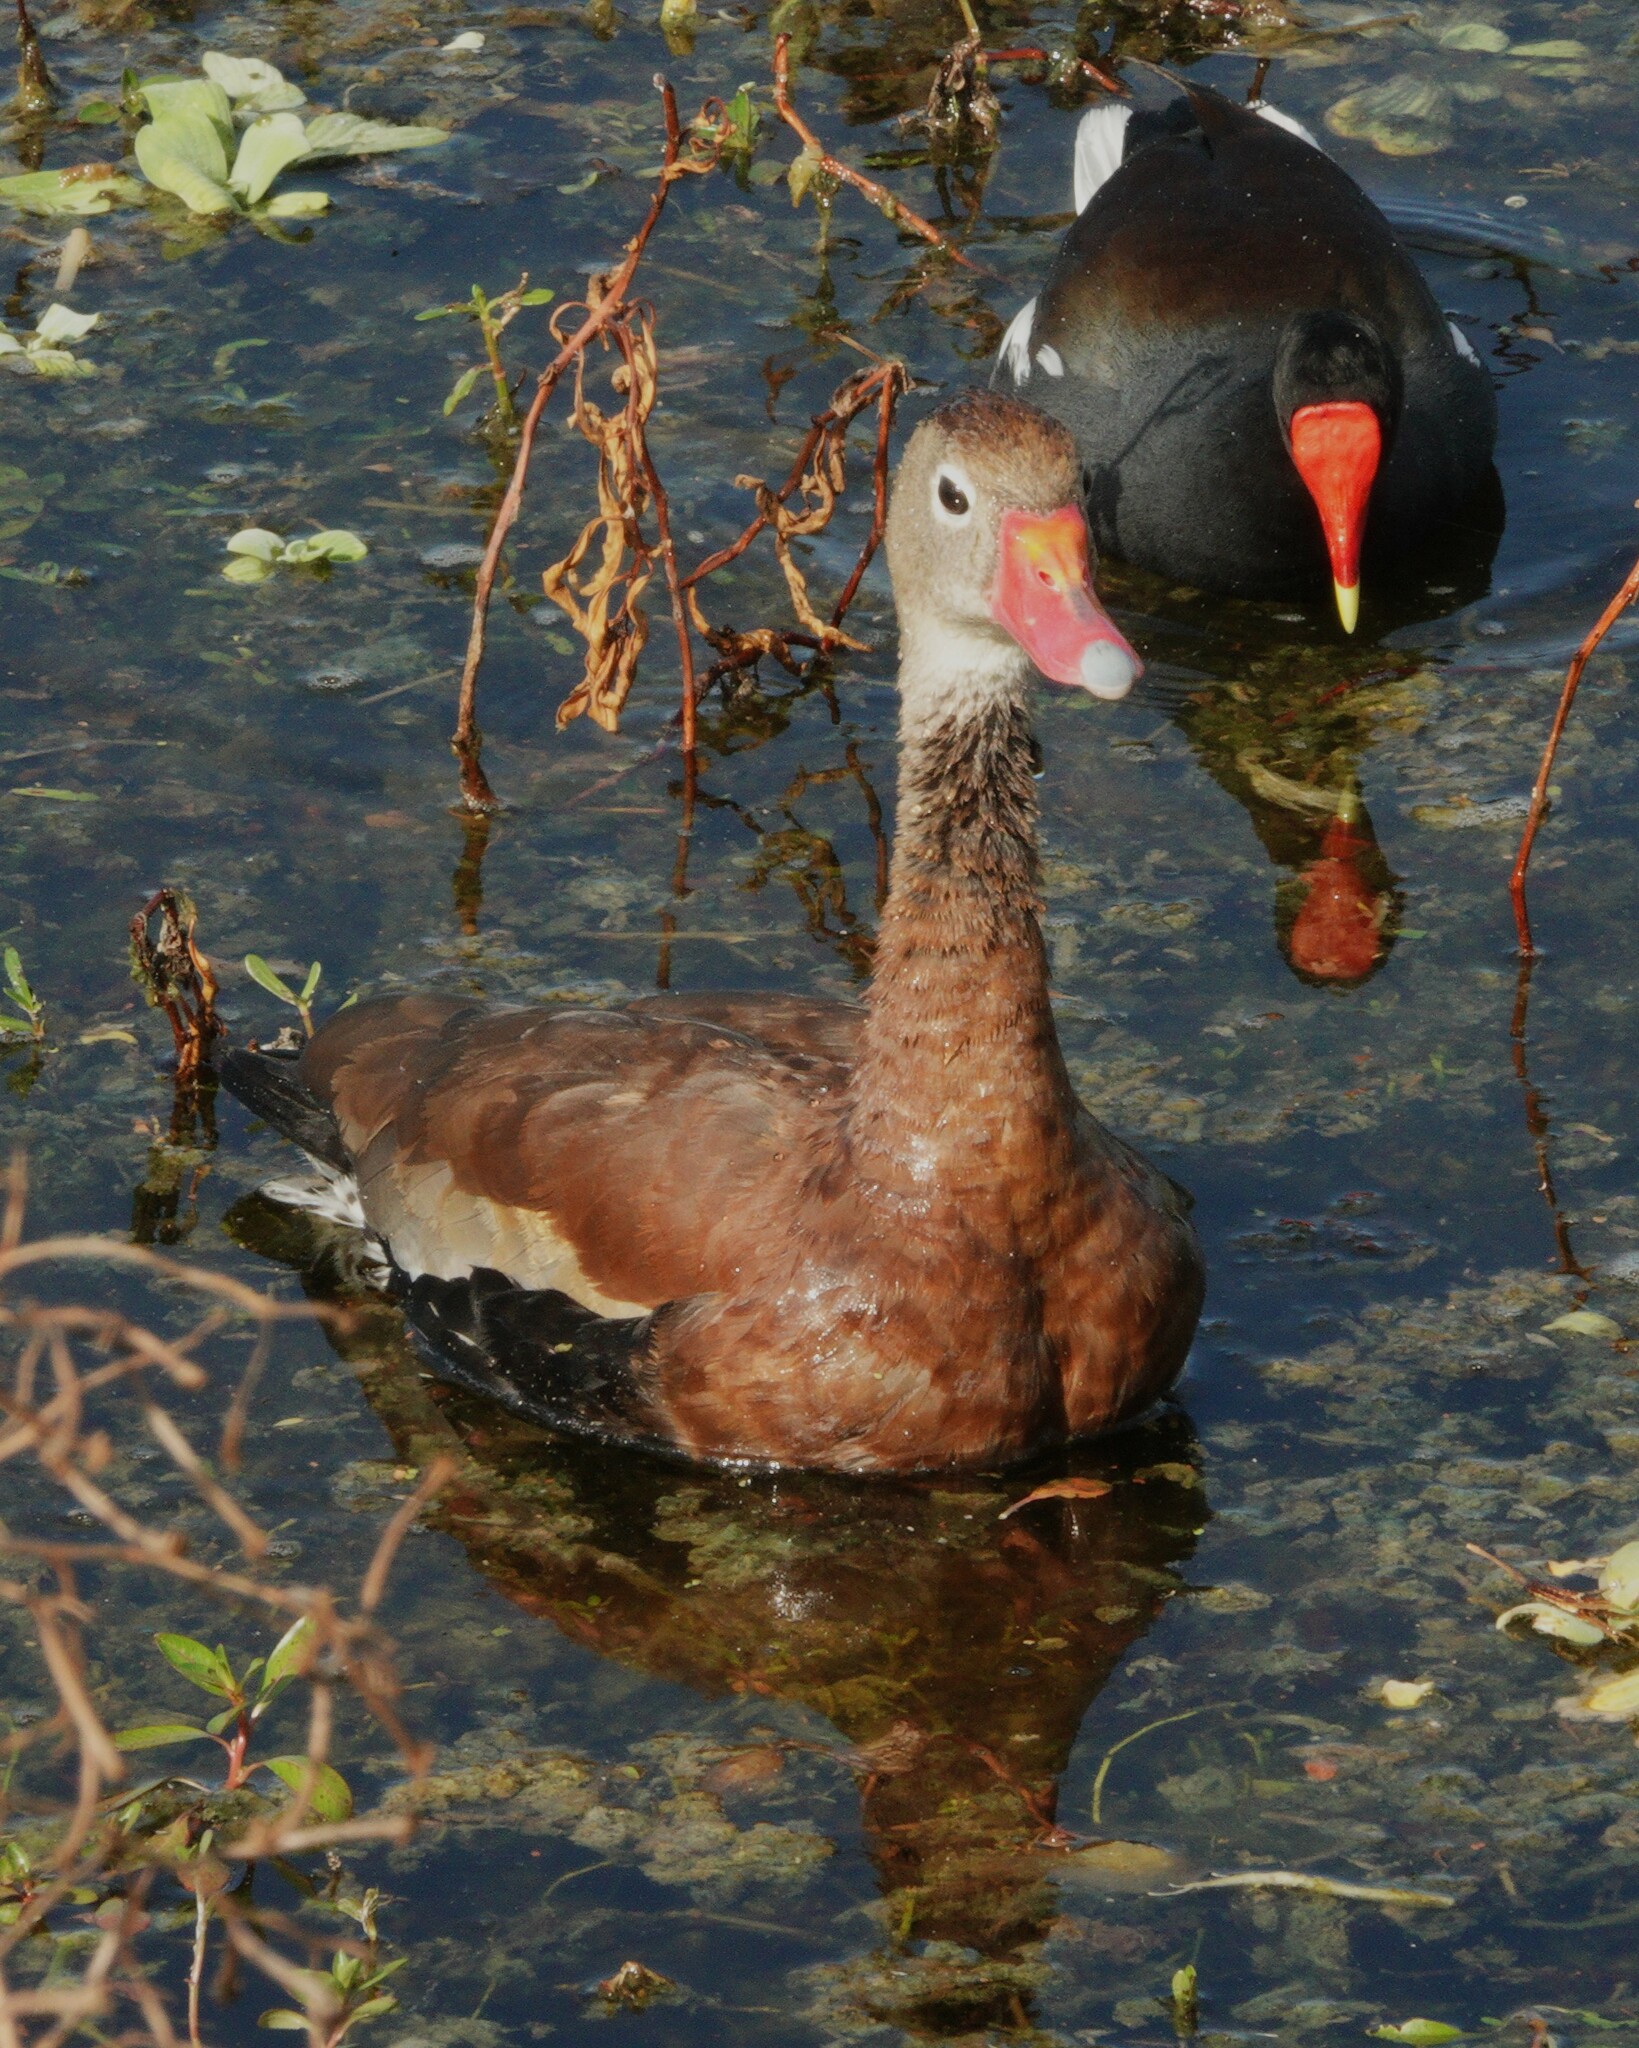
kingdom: Animalia
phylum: Chordata
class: Aves
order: Anseriformes
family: Anatidae
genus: Dendrocygna
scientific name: Dendrocygna autumnalis
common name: Black-bellied whistling duck
